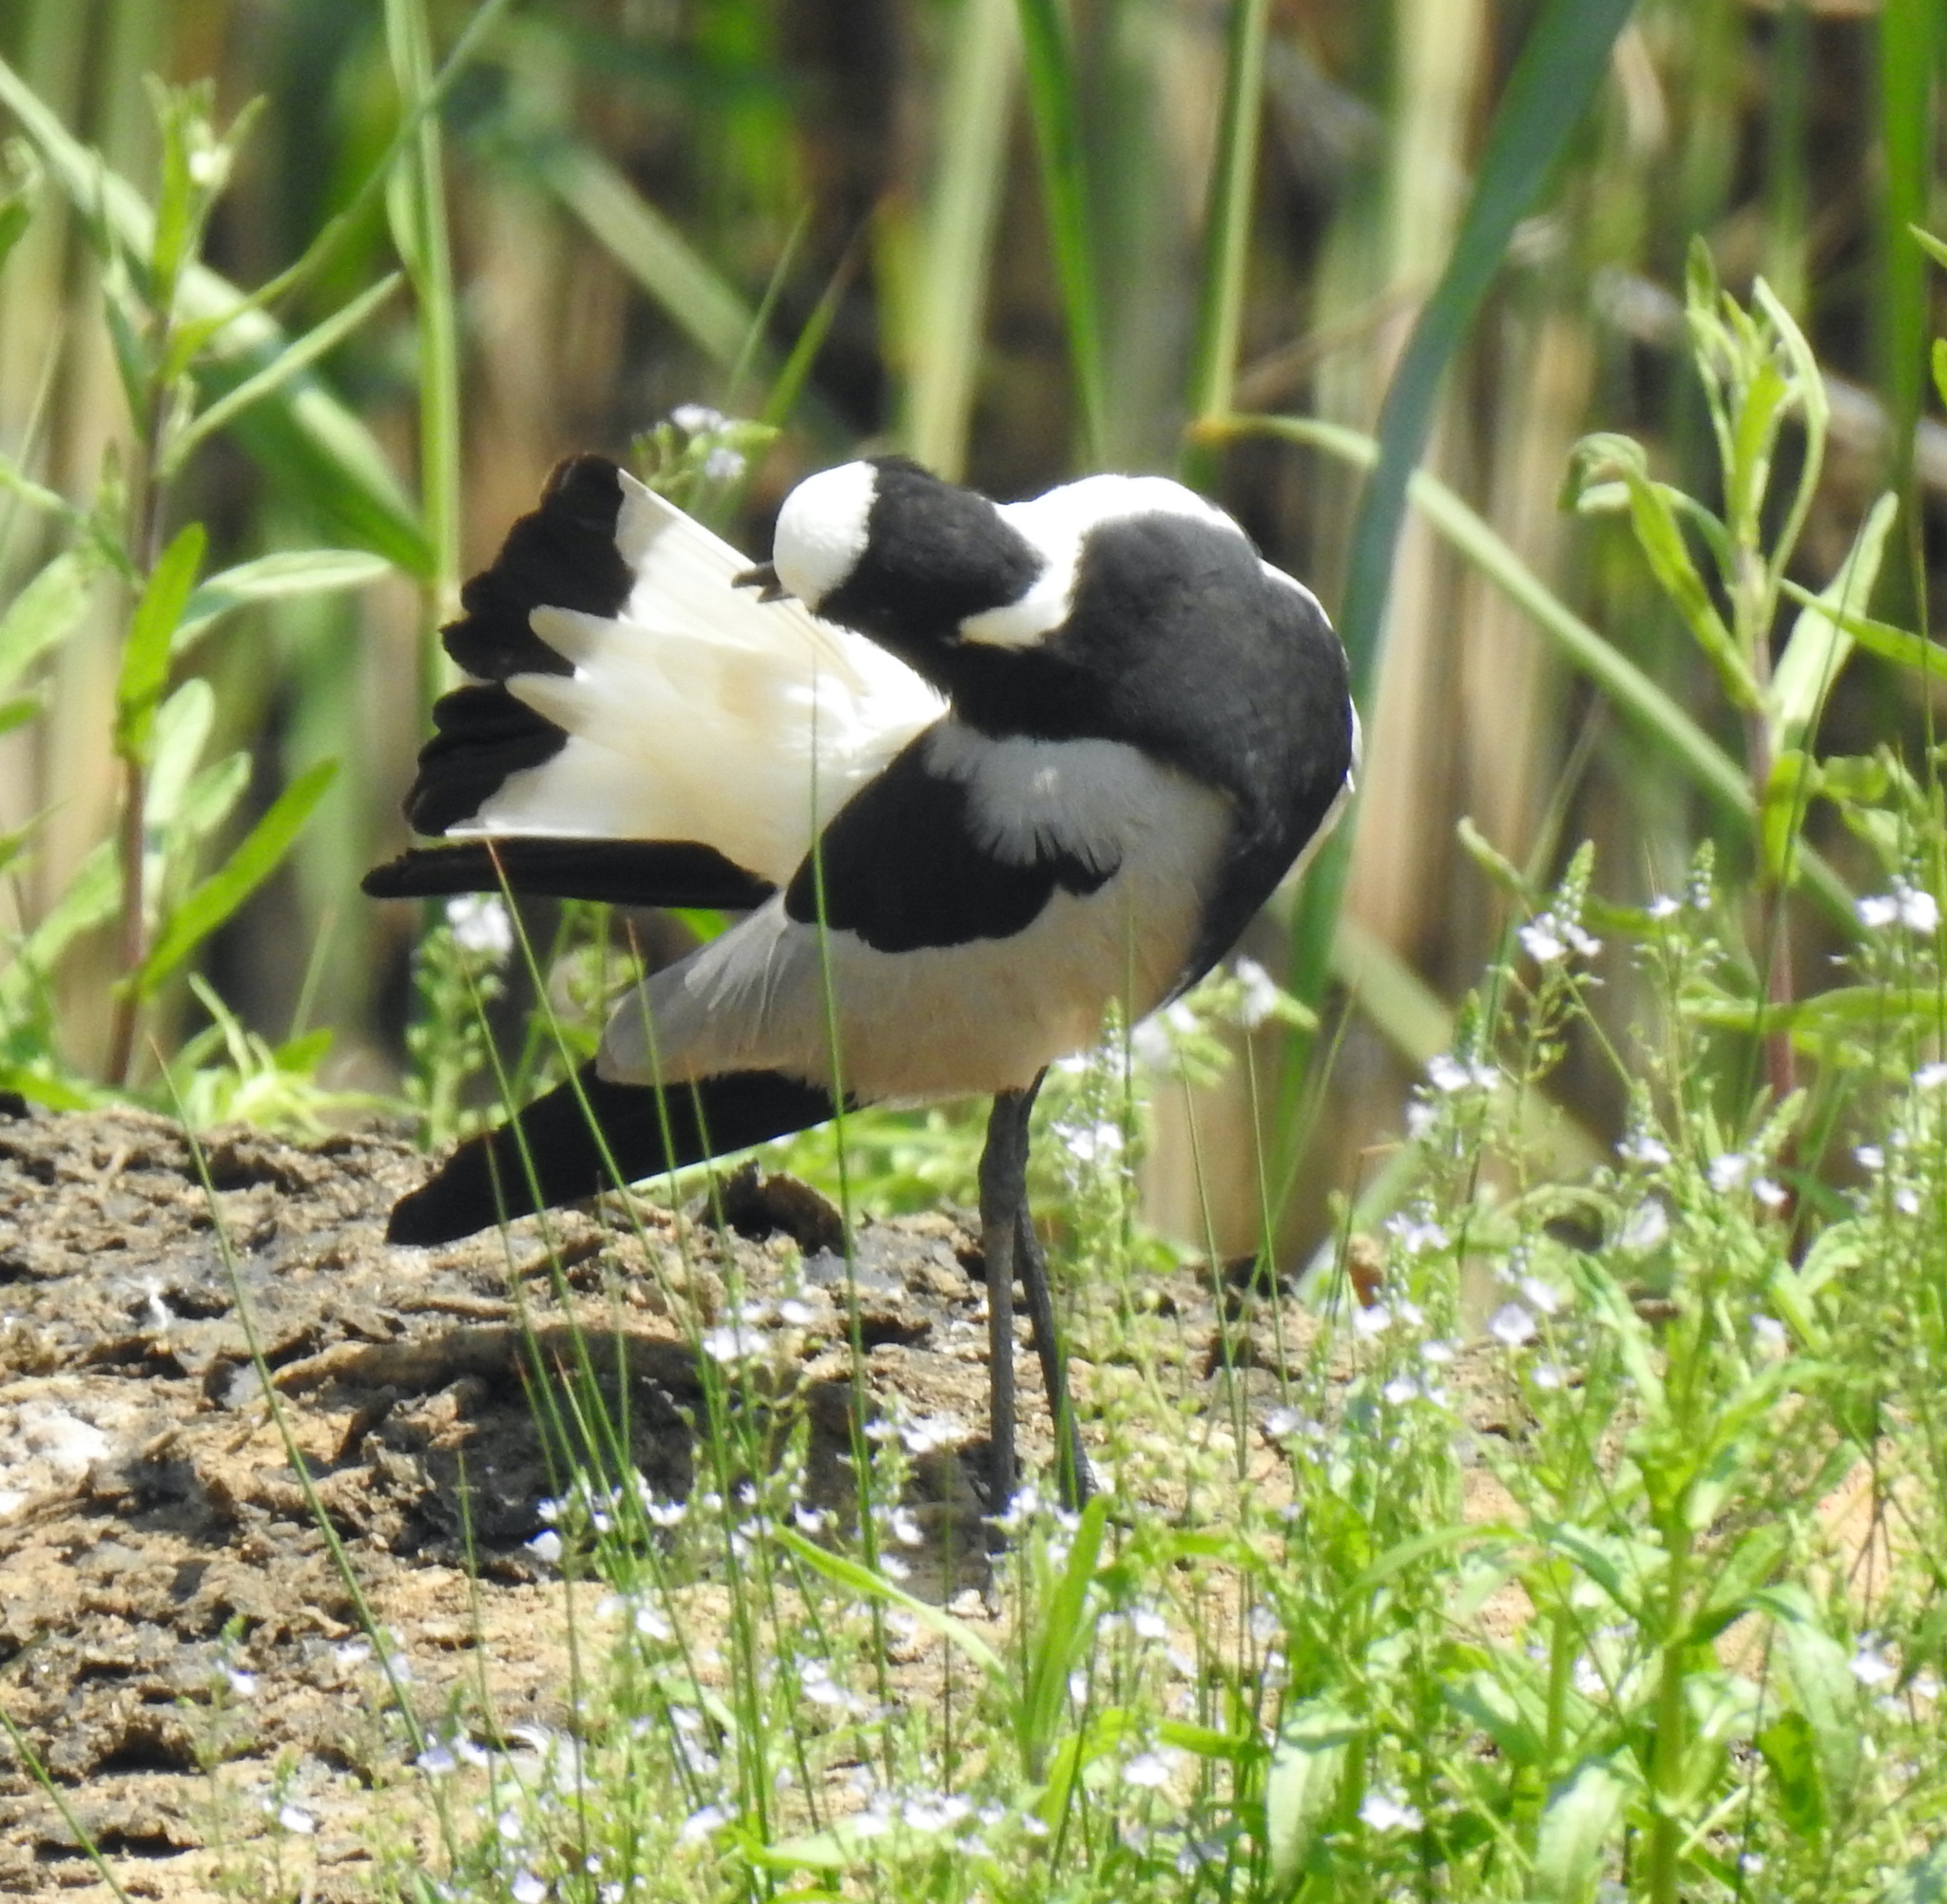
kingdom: Animalia
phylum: Chordata
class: Aves
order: Charadriiformes
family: Charadriidae
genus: Vanellus
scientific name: Vanellus armatus
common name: Blacksmith lapwing
